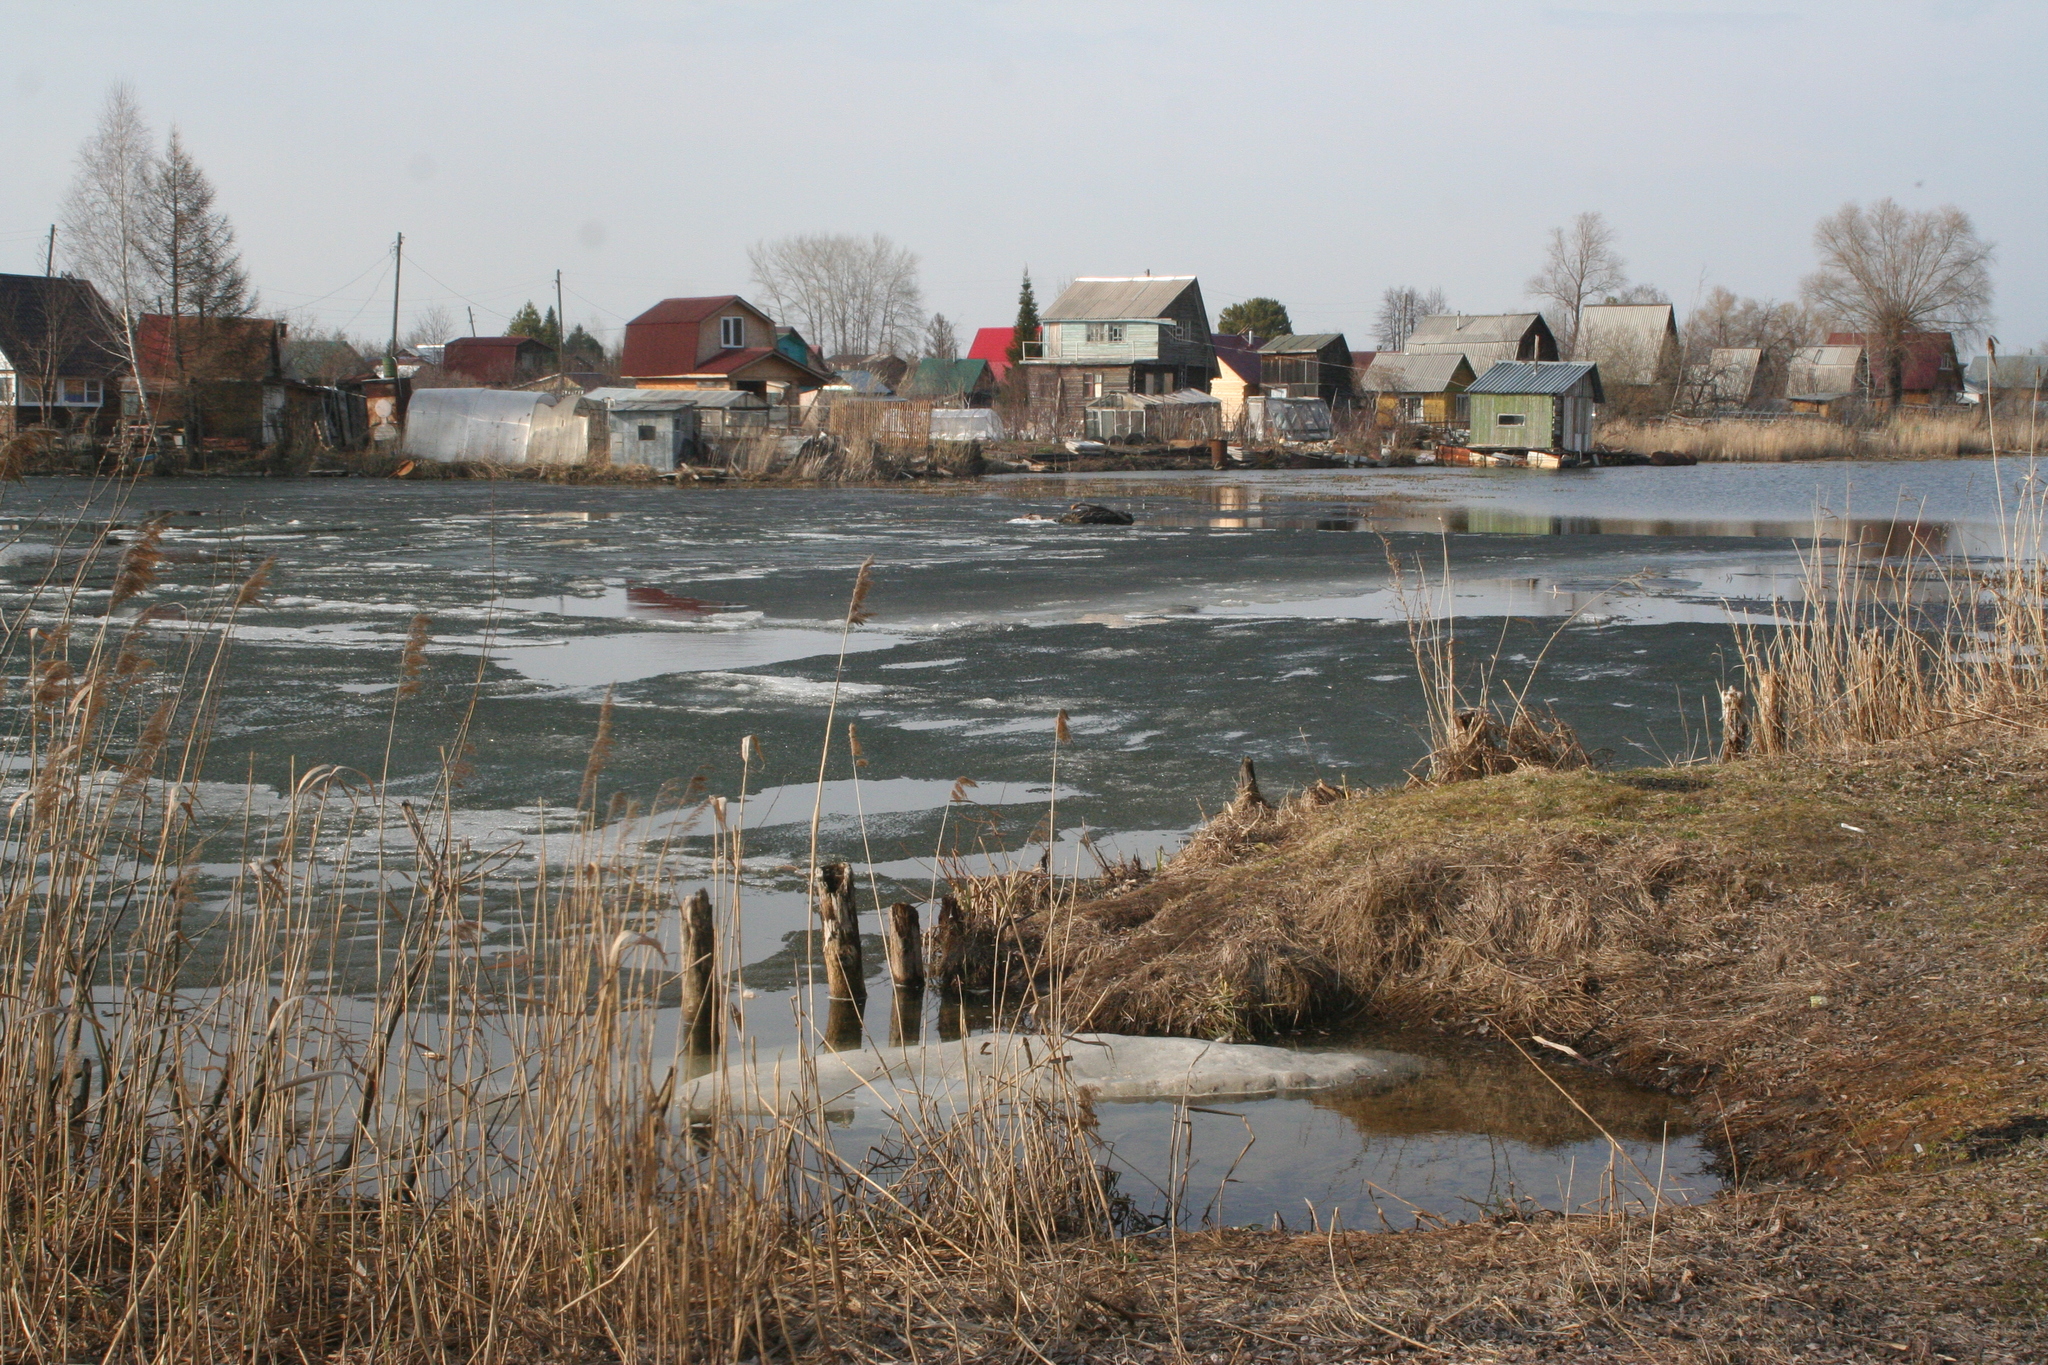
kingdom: Plantae
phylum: Tracheophyta
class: Liliopsida
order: Poales
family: Poaceae
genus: Phragmites
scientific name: Phragmites australis
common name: Common reed
